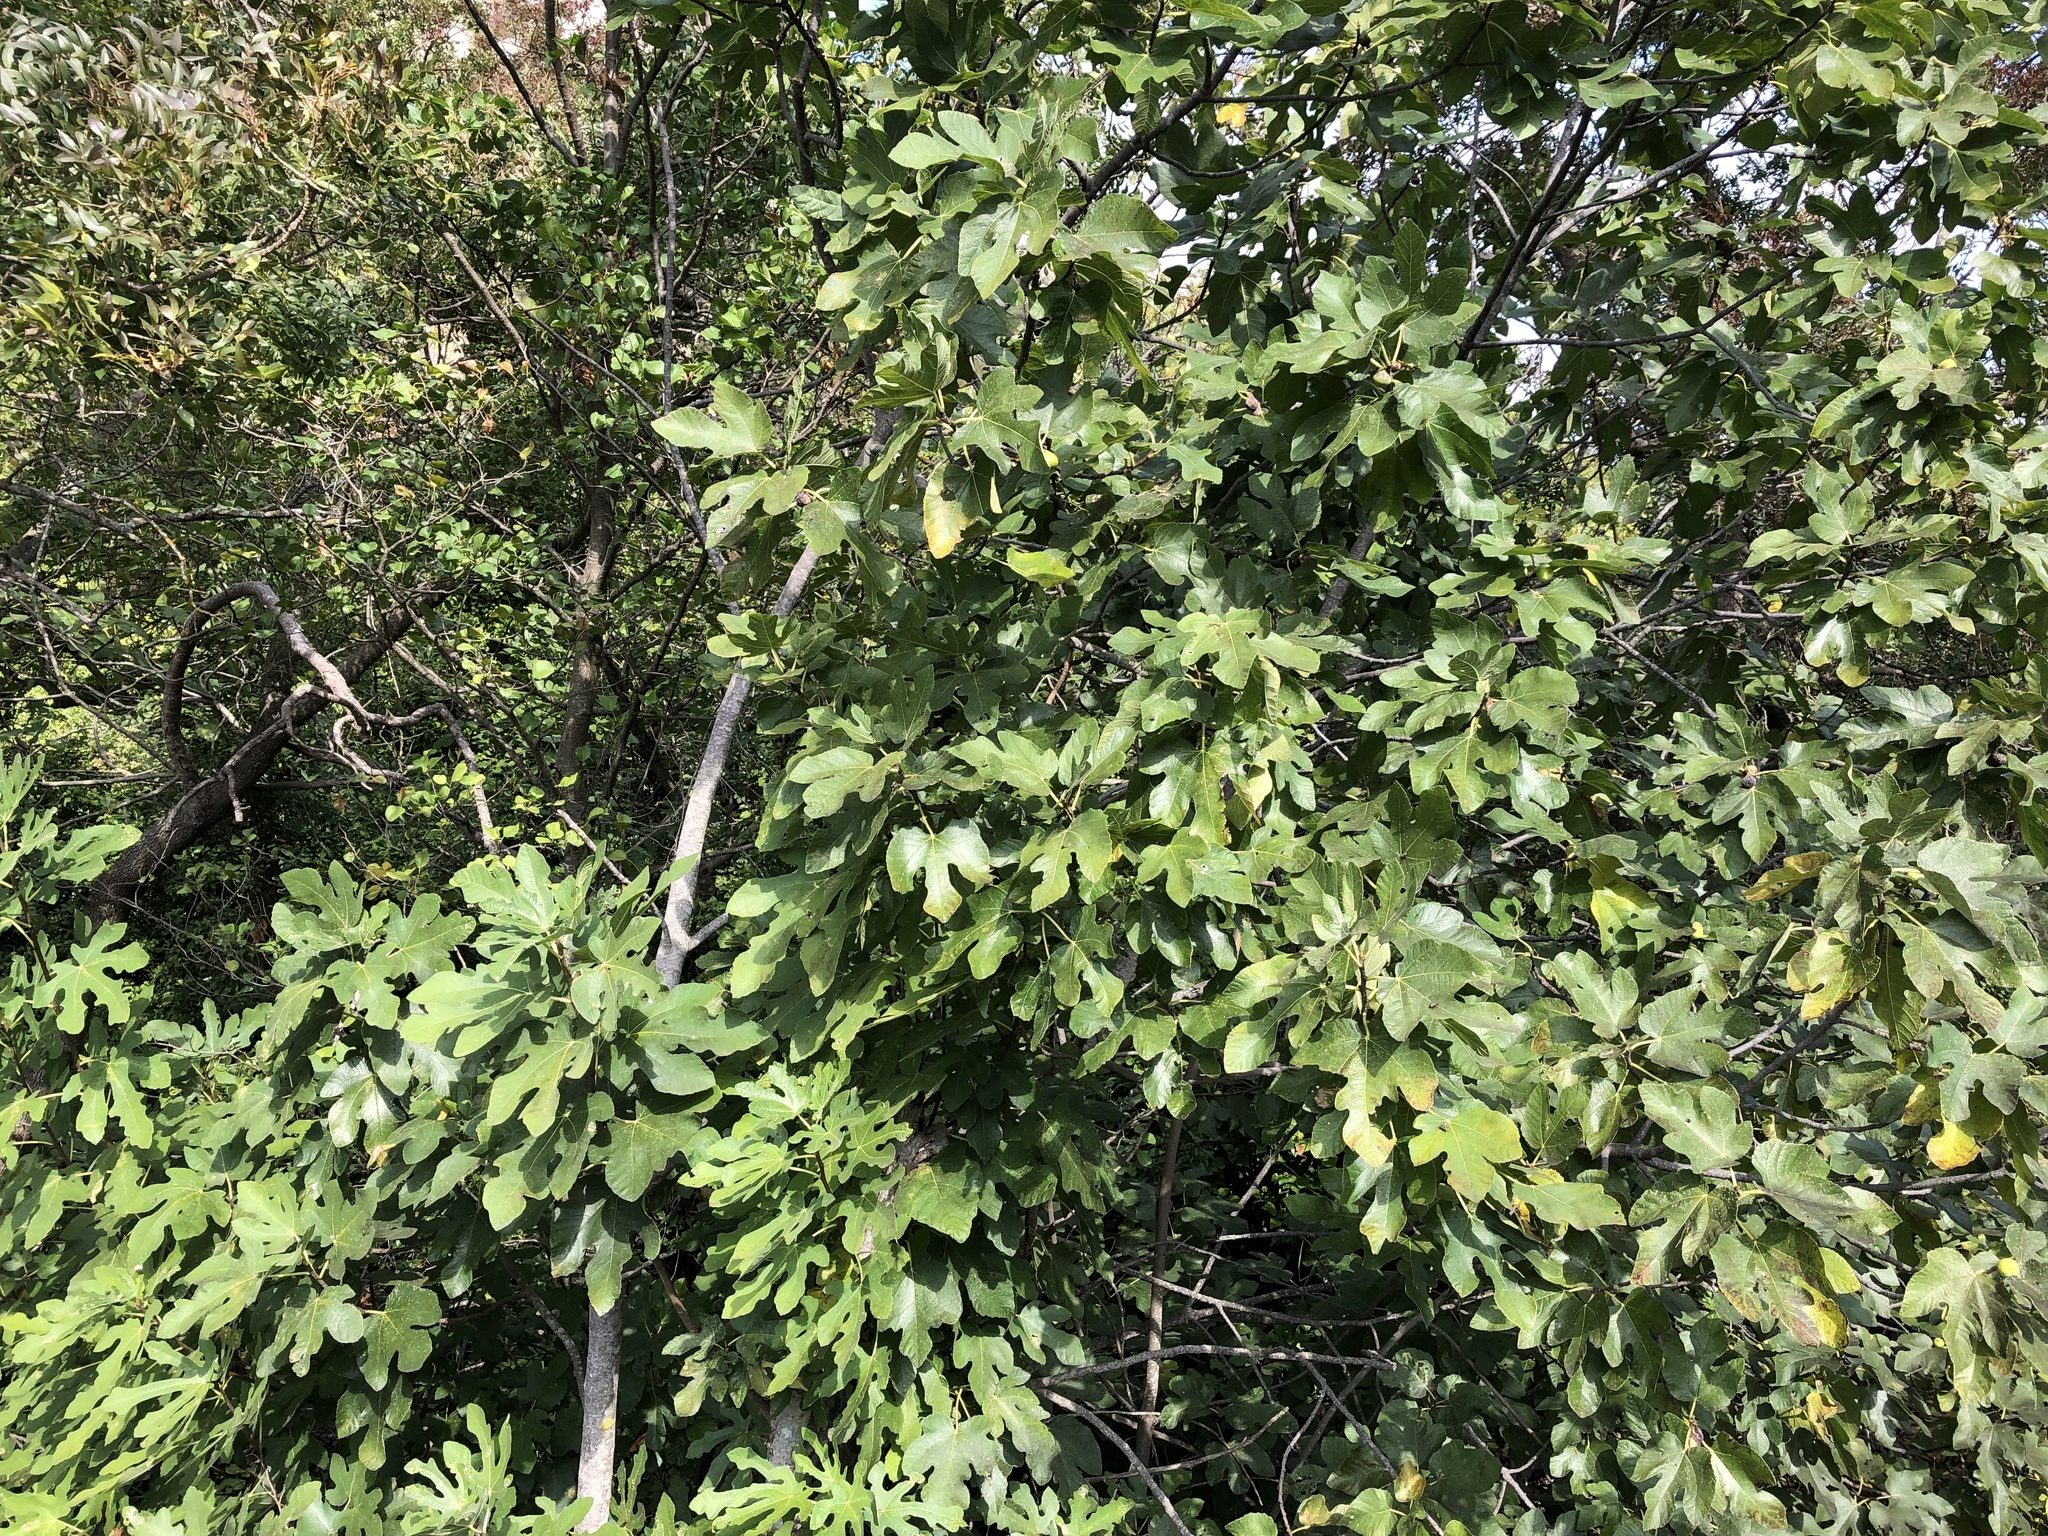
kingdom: Plantae
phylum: Tracheophyta
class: Magnoliopsida
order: Rosales
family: Moraceae
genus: Ficus
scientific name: Ficus carica
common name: Fig
